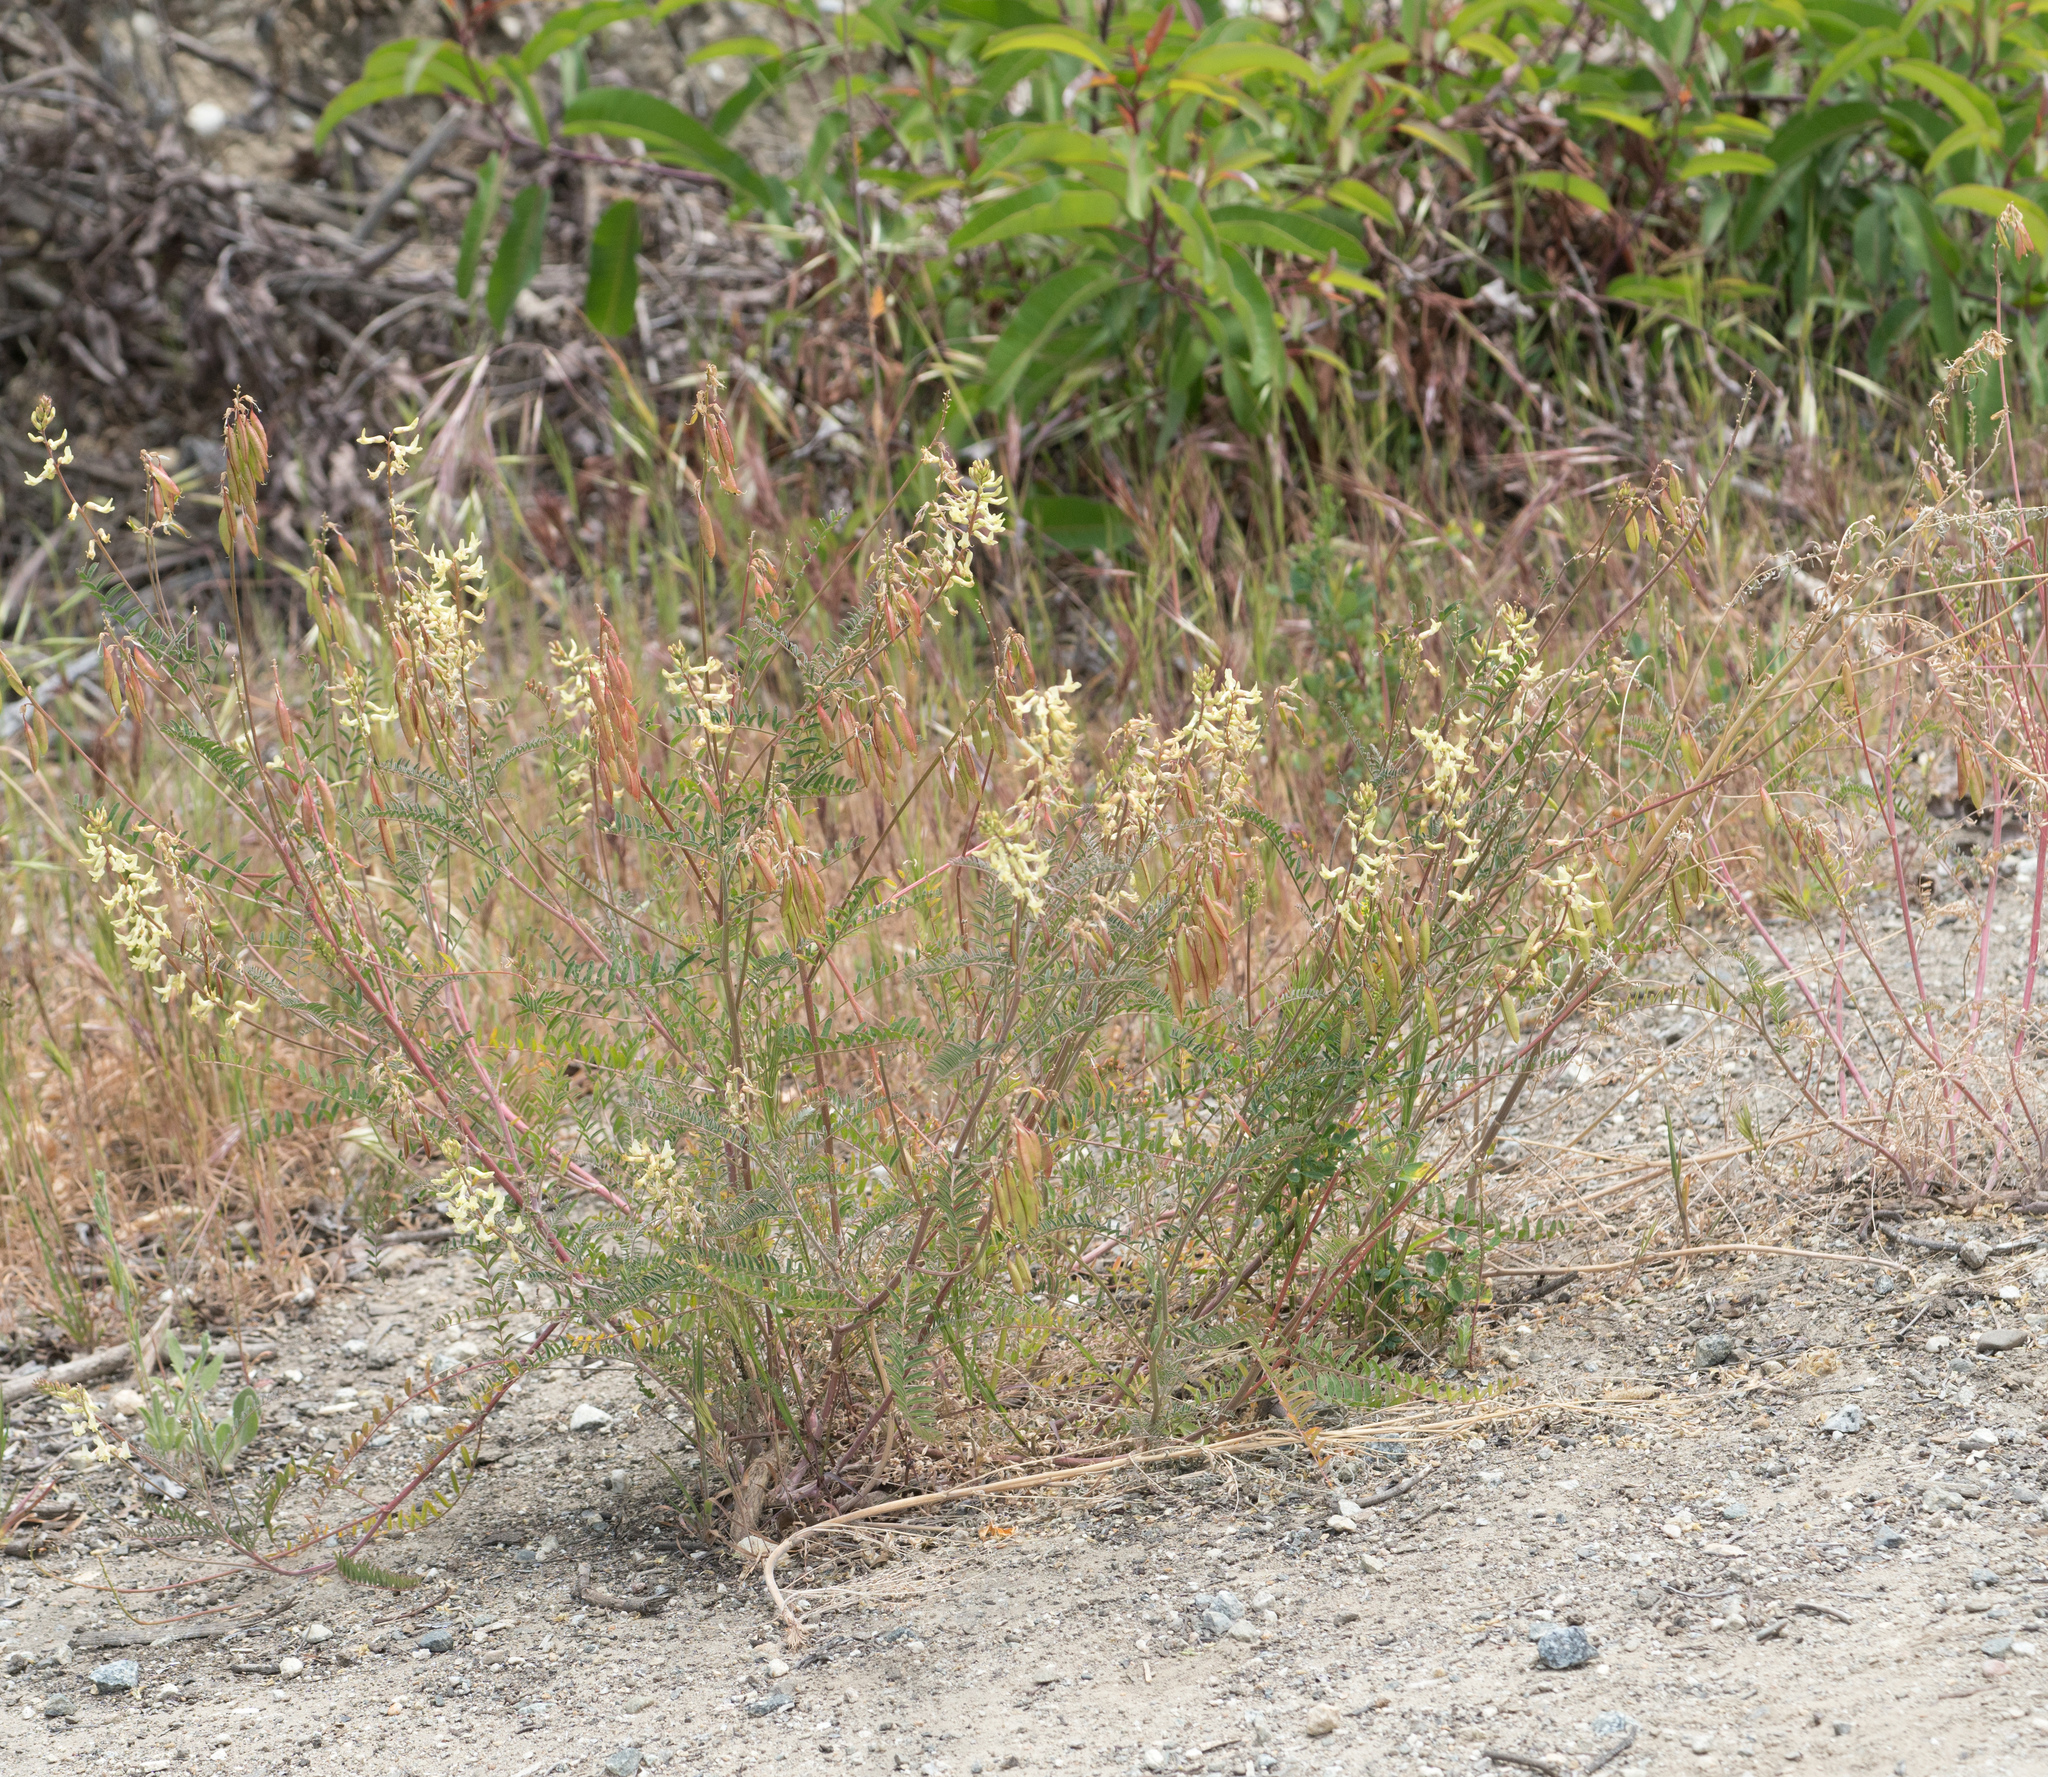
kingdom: Plantae
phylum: Tracheophyta
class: Magnoliopsida
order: Fabales
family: Fabaceae
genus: Astragalus
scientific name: Astragalus trichopodus
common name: Santa barbara milk-vetch
